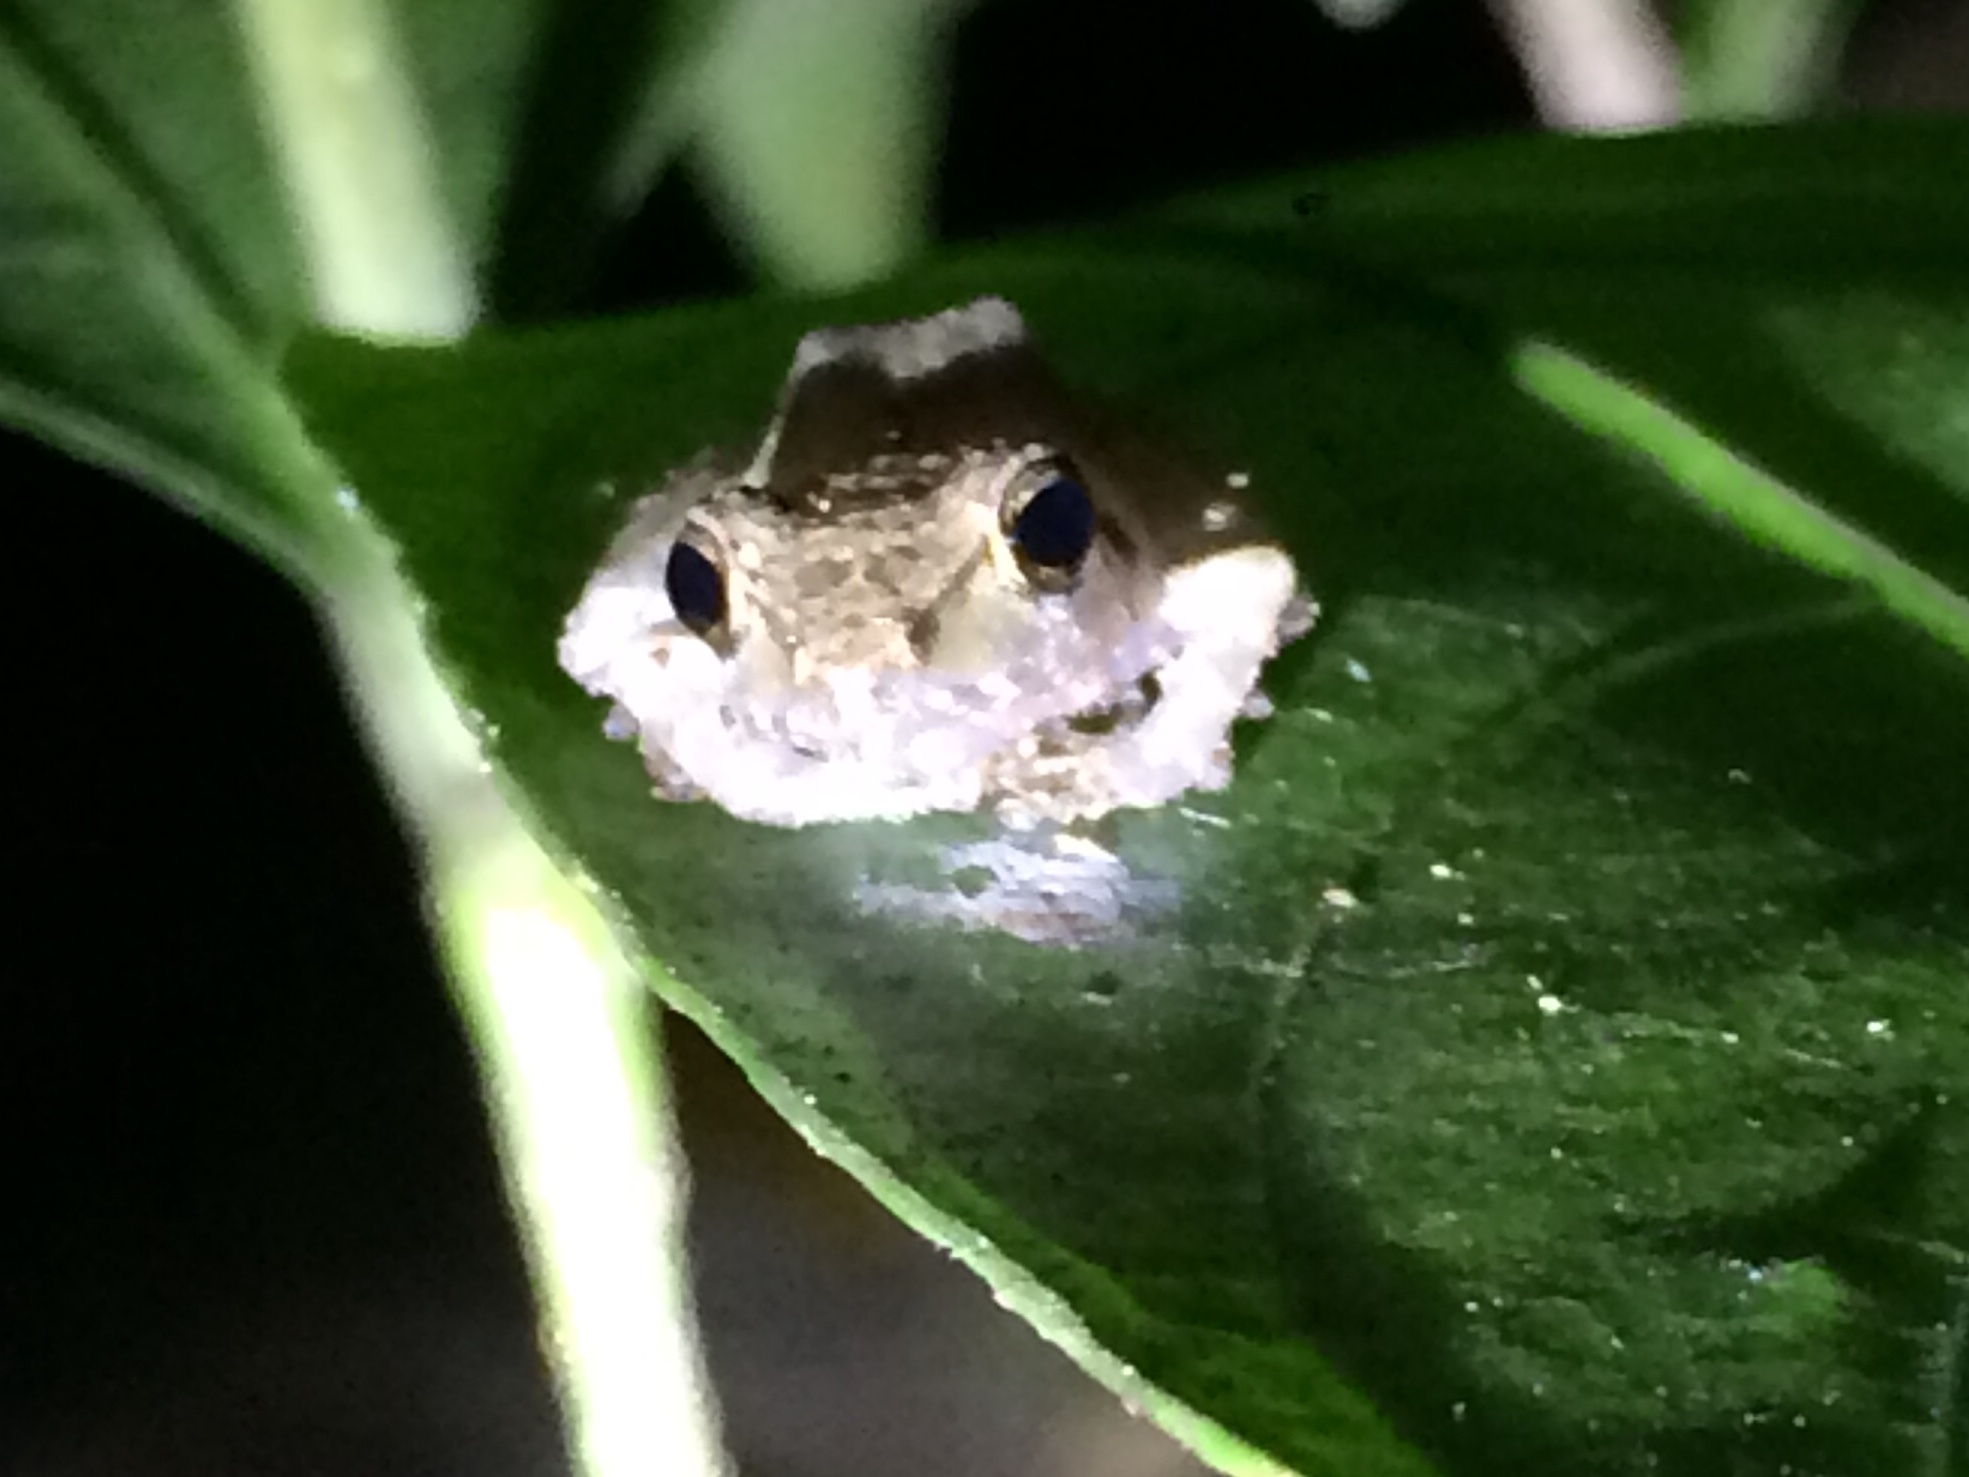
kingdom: Animalia
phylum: Chordata
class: Amphibia
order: Anura
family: Craugastoridae
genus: Pristimantis
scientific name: Pristimantis ramagii
